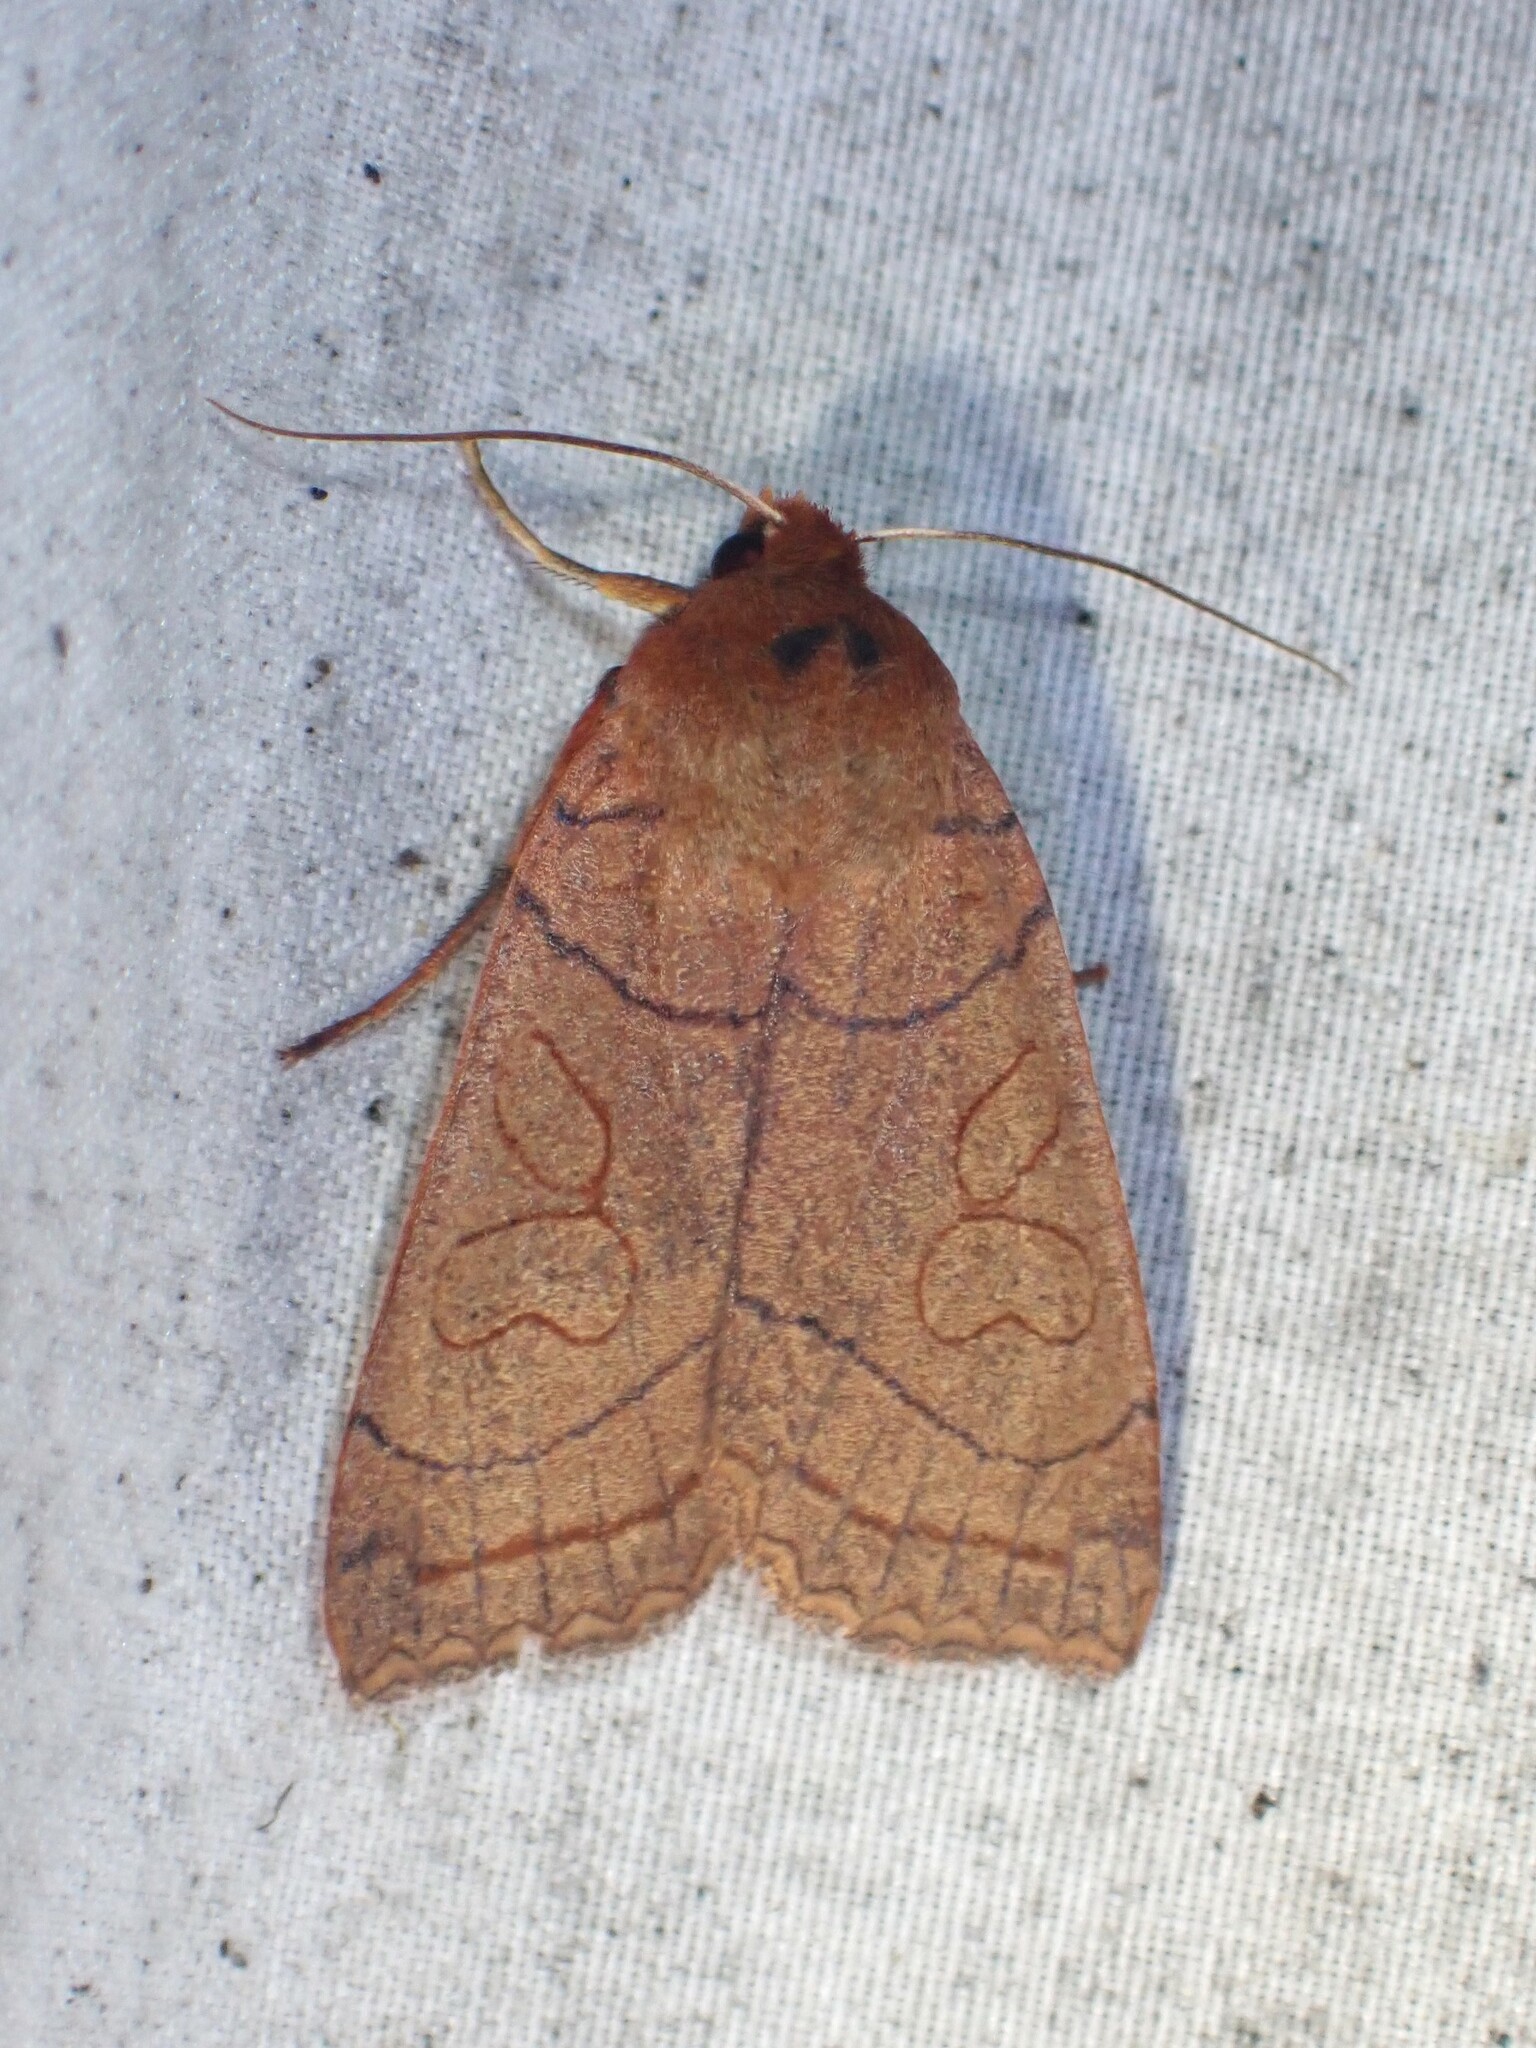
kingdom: Animalia
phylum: Arthropoda
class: Insecta
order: Lepidoptera
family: Noctuidae
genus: Metaxaglaea
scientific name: Metaxaglaea inulta
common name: Unsated sallow
